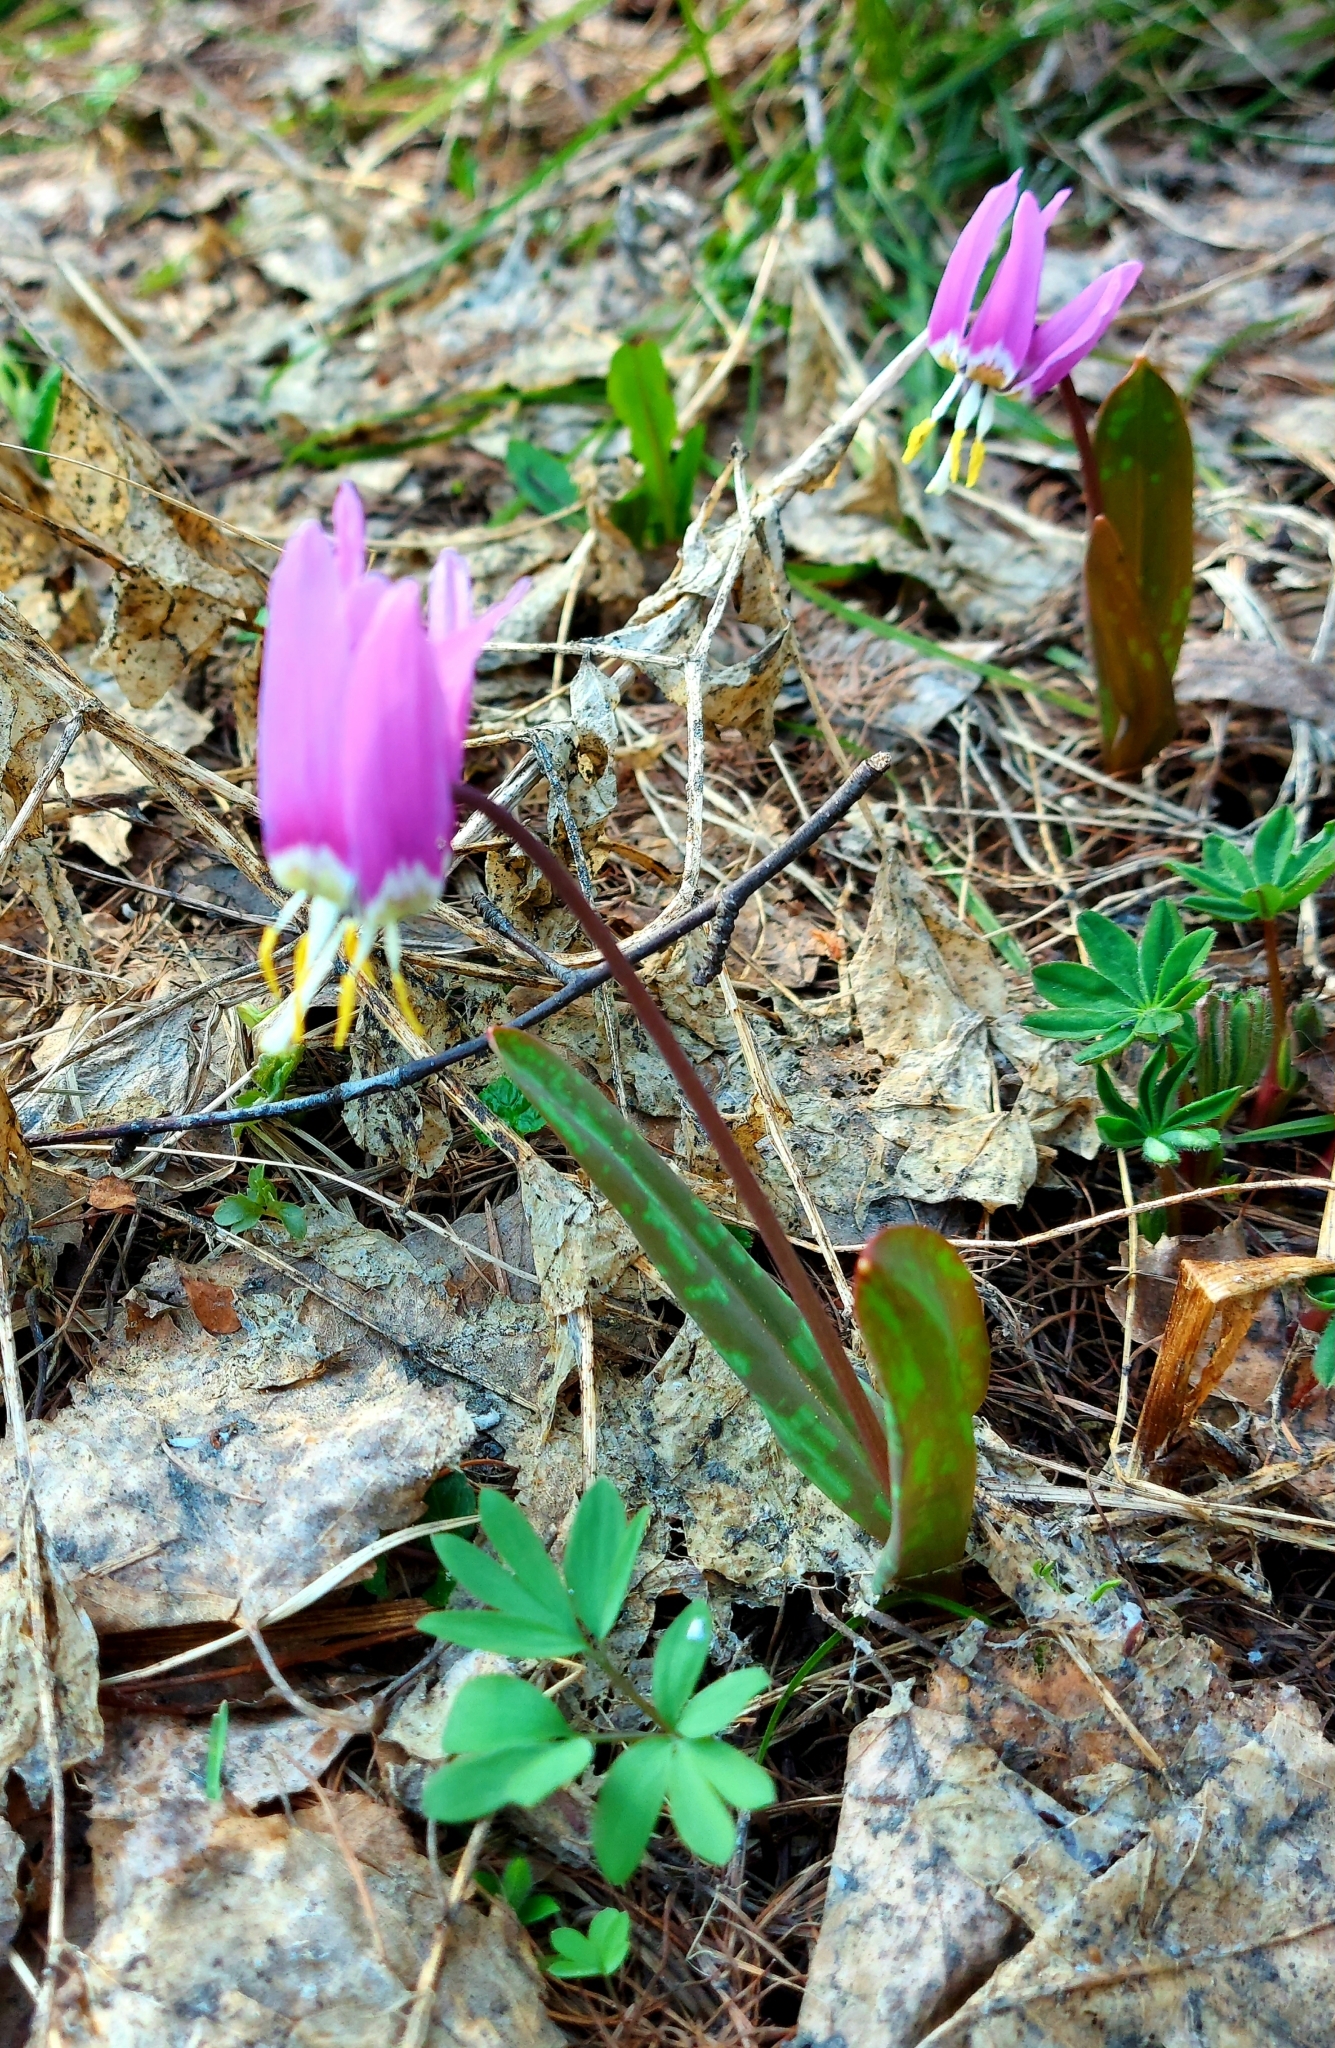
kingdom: Plantae
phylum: Tracheophyta
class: Liliopsida
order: Liliales
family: Liliaceae
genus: Erythronium
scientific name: Erythronium sibiricum
